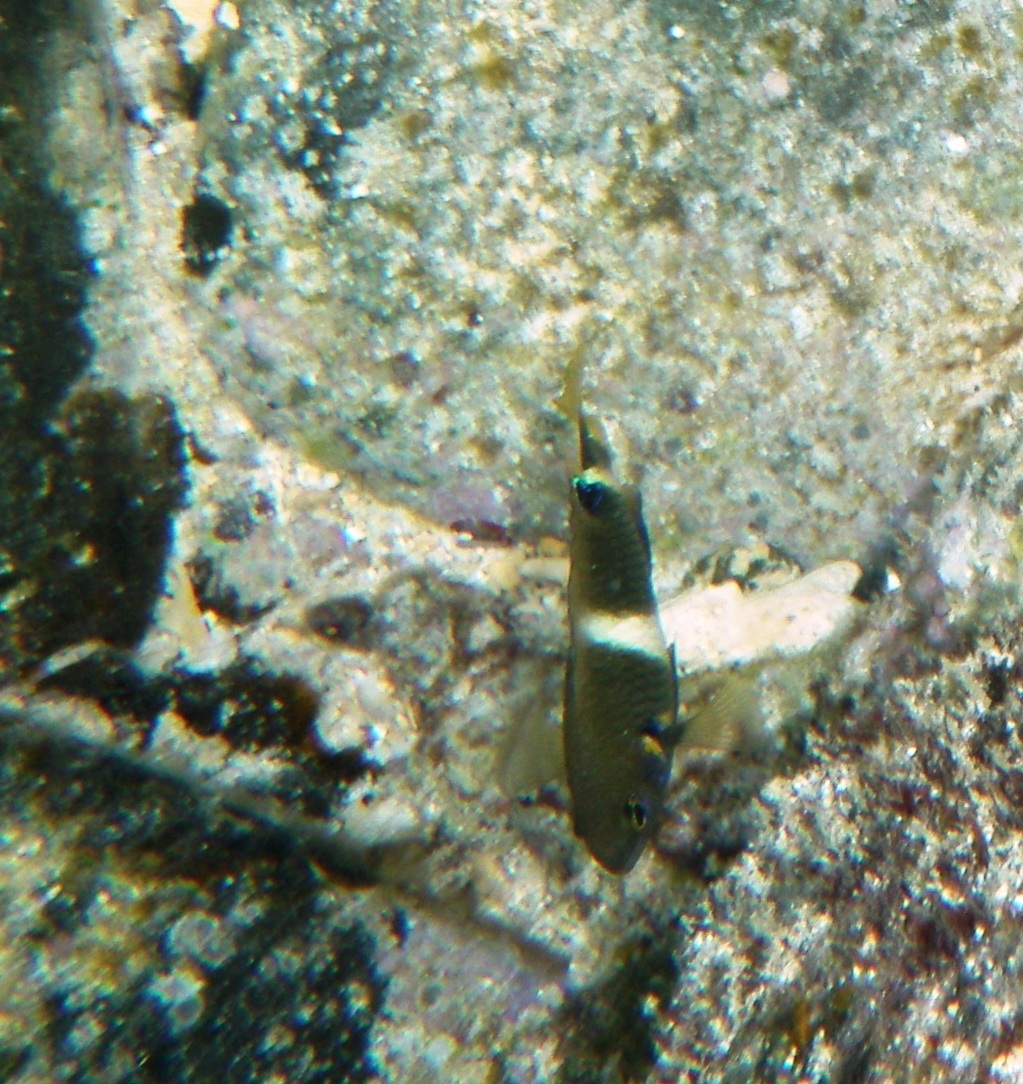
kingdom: Animalia
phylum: Chordata
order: Perciformes
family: Pomacentridae
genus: Plectroglyphidodon
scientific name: Plectroglyphidodon leucozonus
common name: White-band damsel
